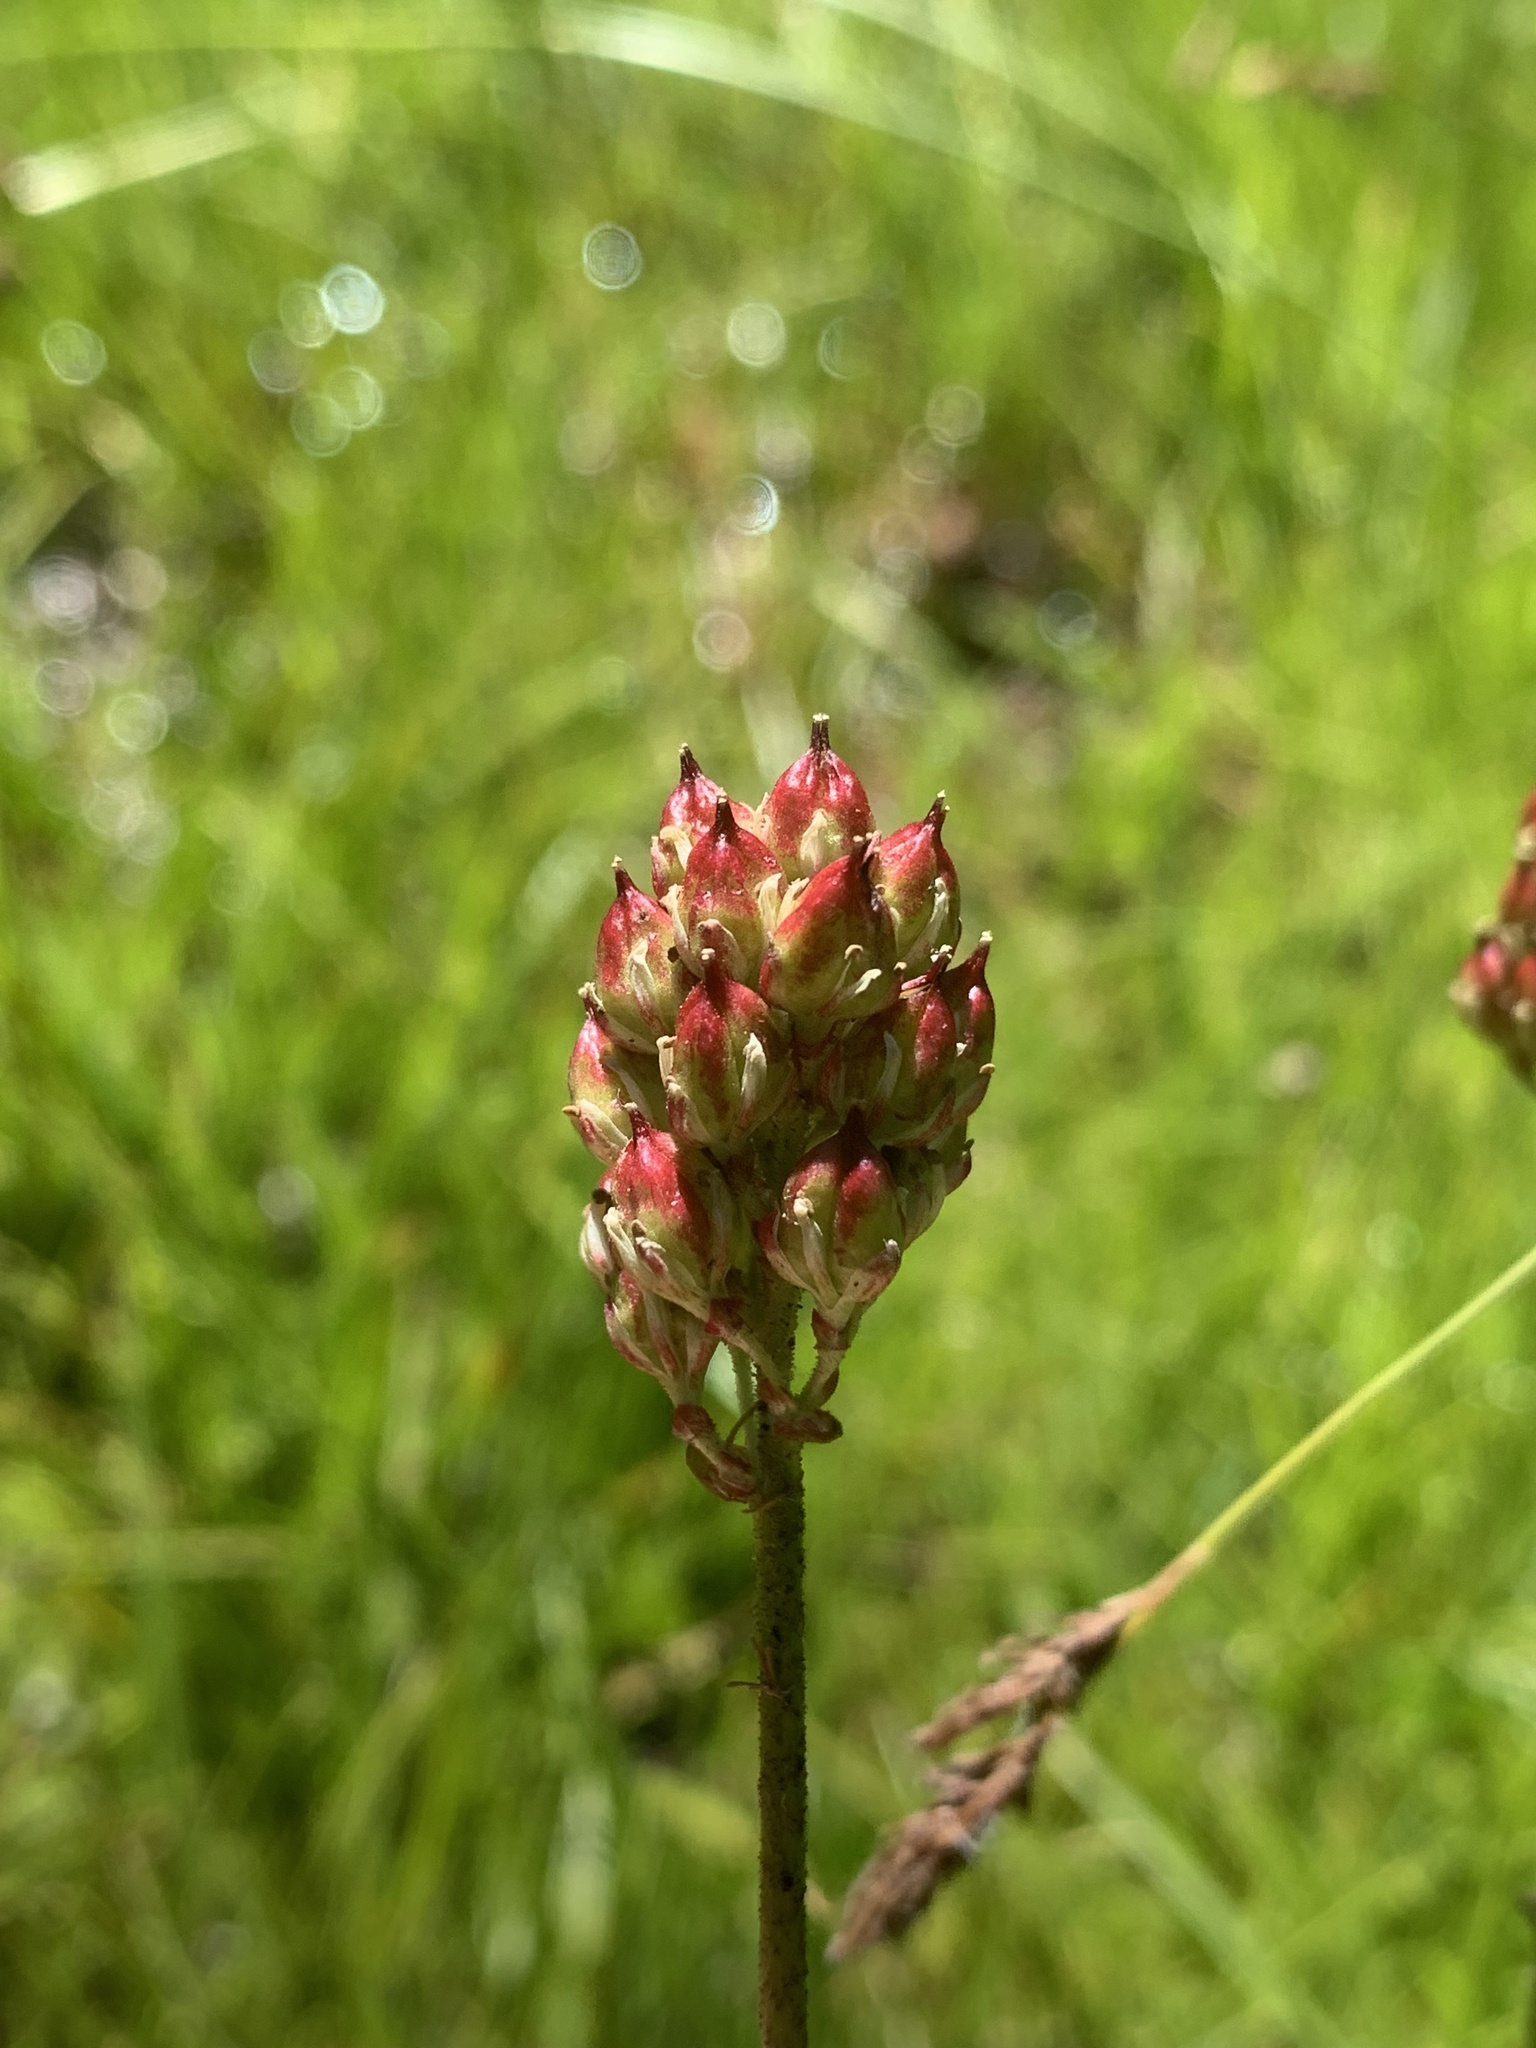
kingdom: Plantae
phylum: Tracheophyta
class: Liliopsida
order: Alismatales
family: Tofieldiaceae
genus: Triantha
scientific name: Triantha occidentalis
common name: Western false asphodel
